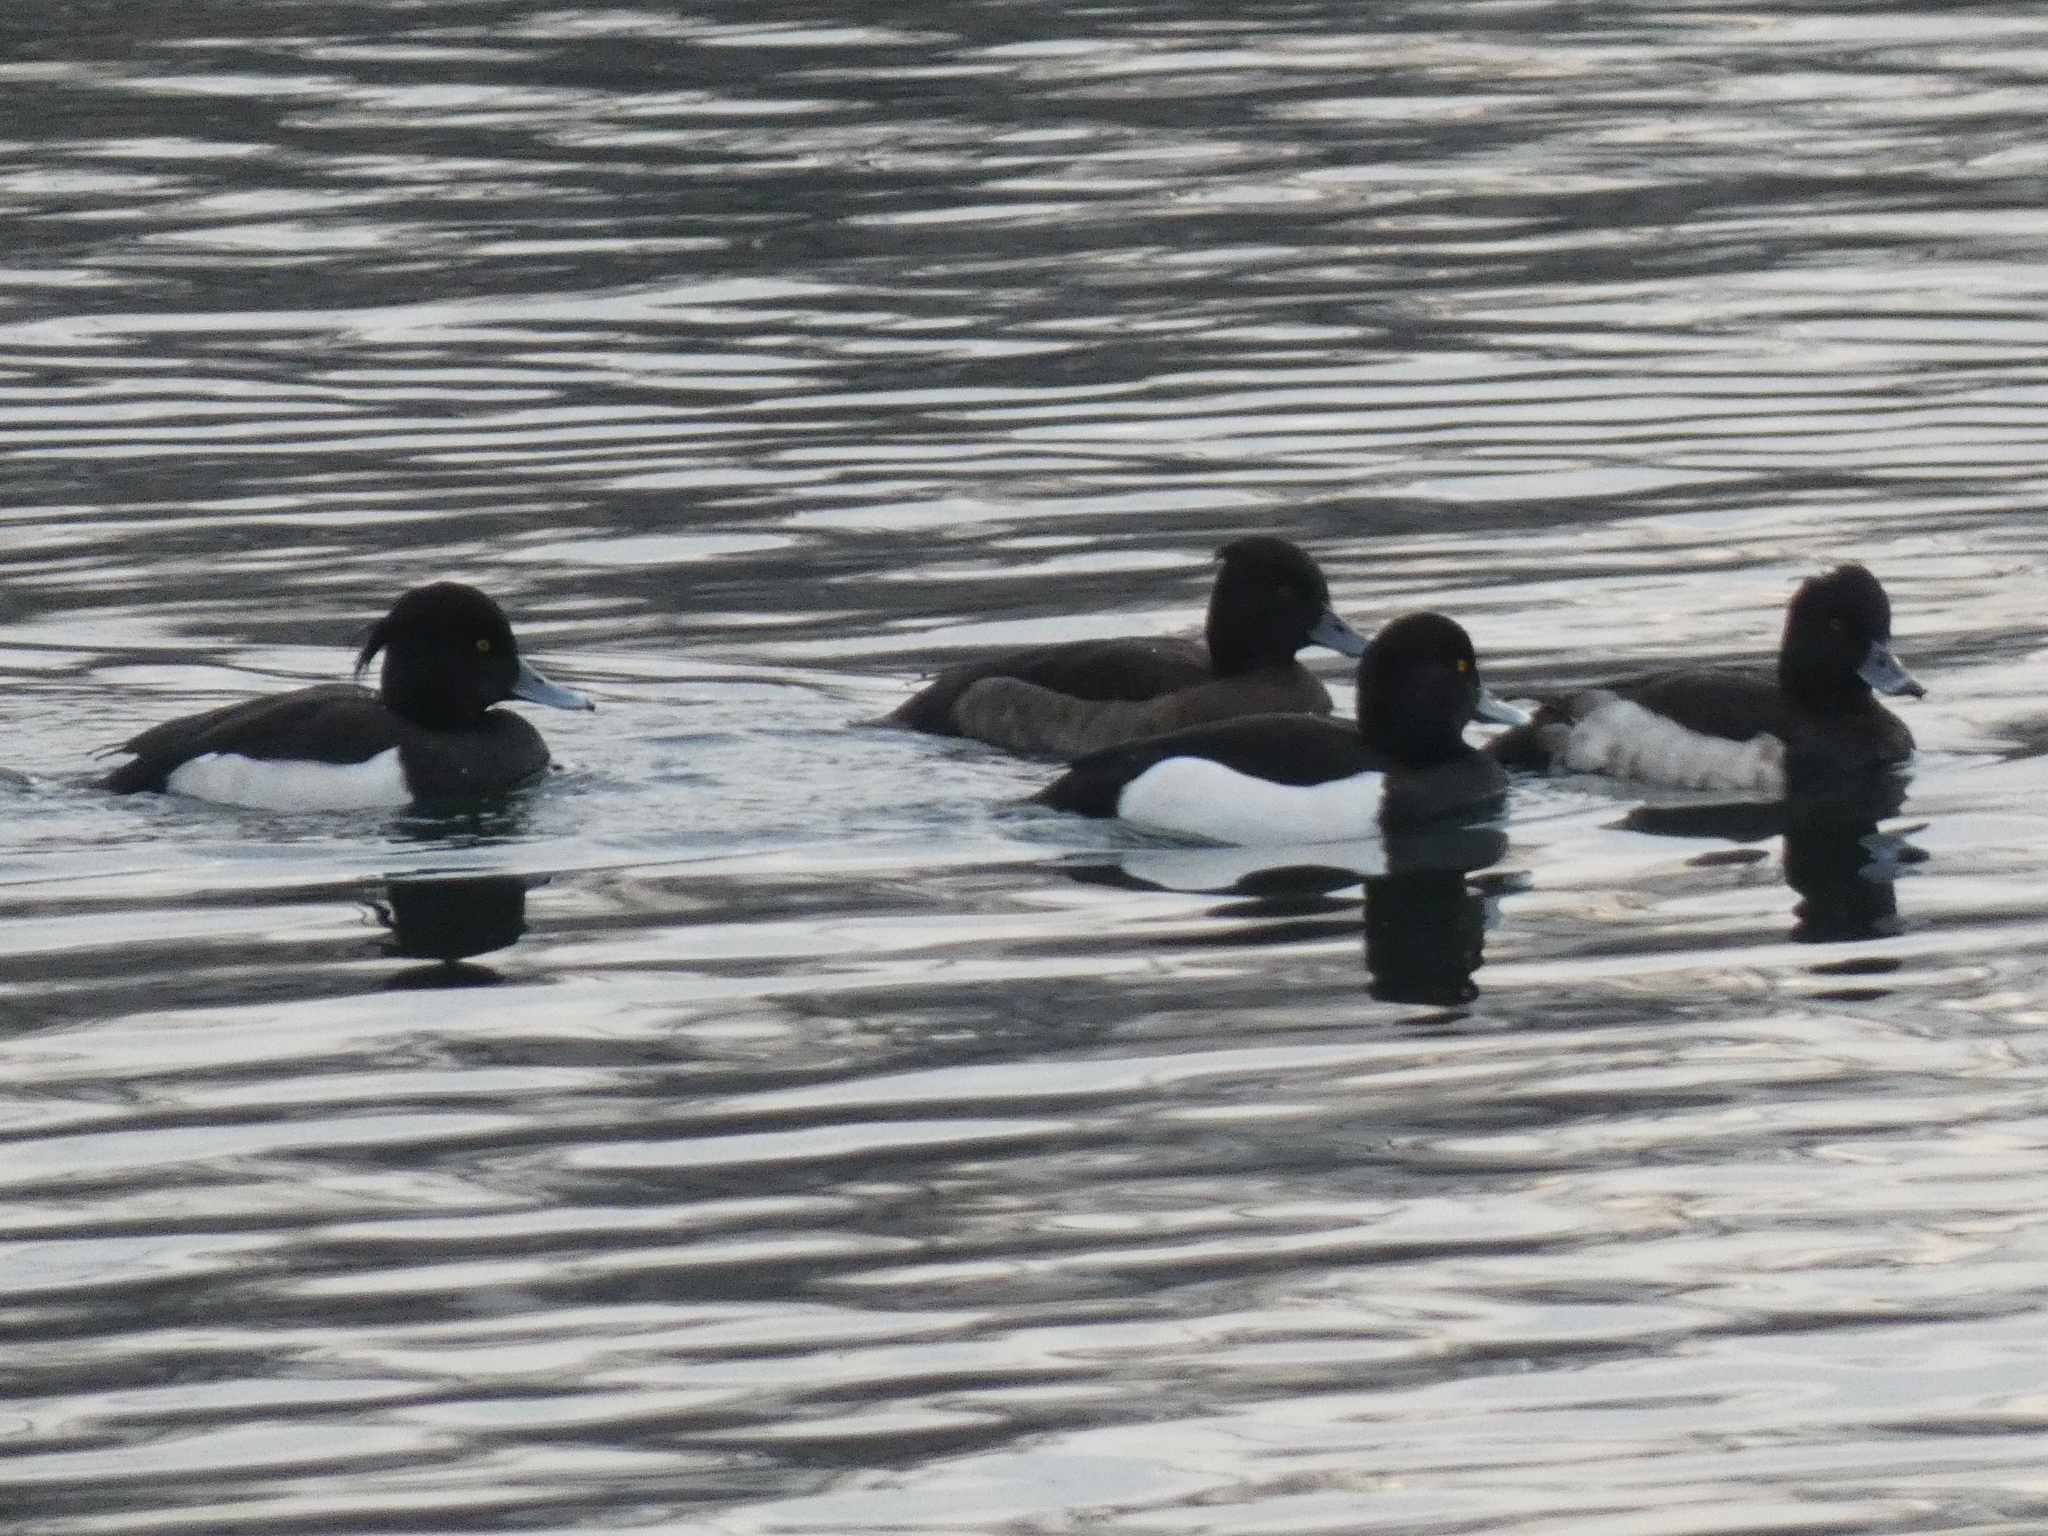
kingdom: Animalia
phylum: Chordata
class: Aves
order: Anseriformes
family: Anatidae
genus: Aythya
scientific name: Aythya fuligula
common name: Tufted duck
